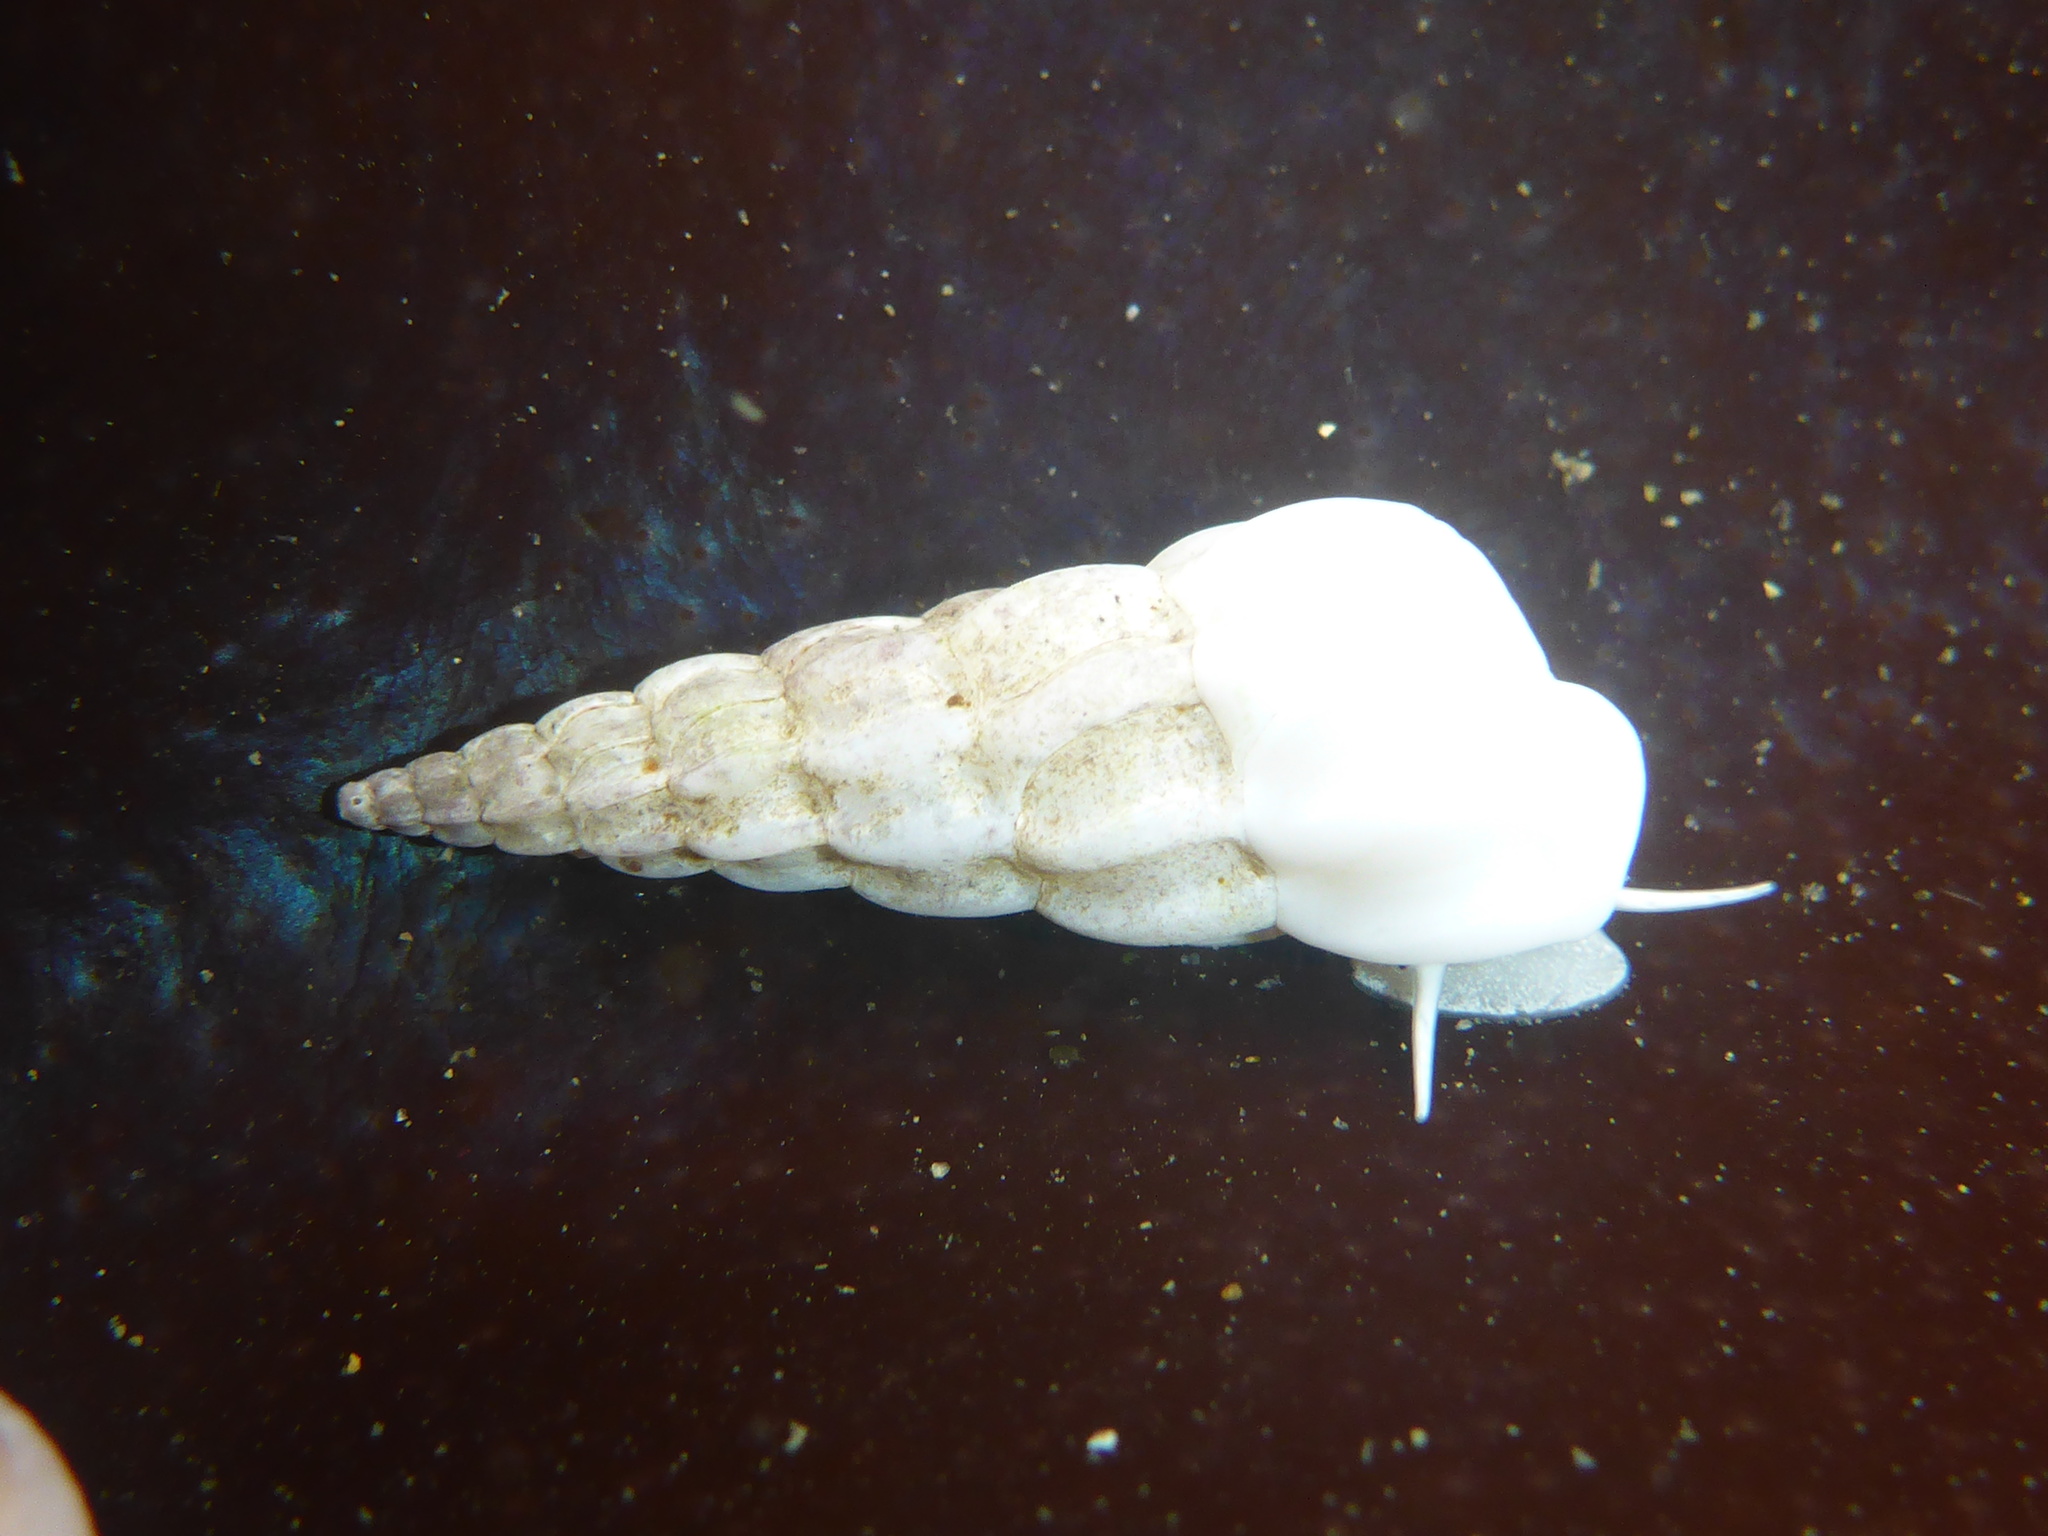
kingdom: Animalia
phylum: Mollusca
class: Gastropoda
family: Epitoniidae
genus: Opalia
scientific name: Opalia wroblewskyi
